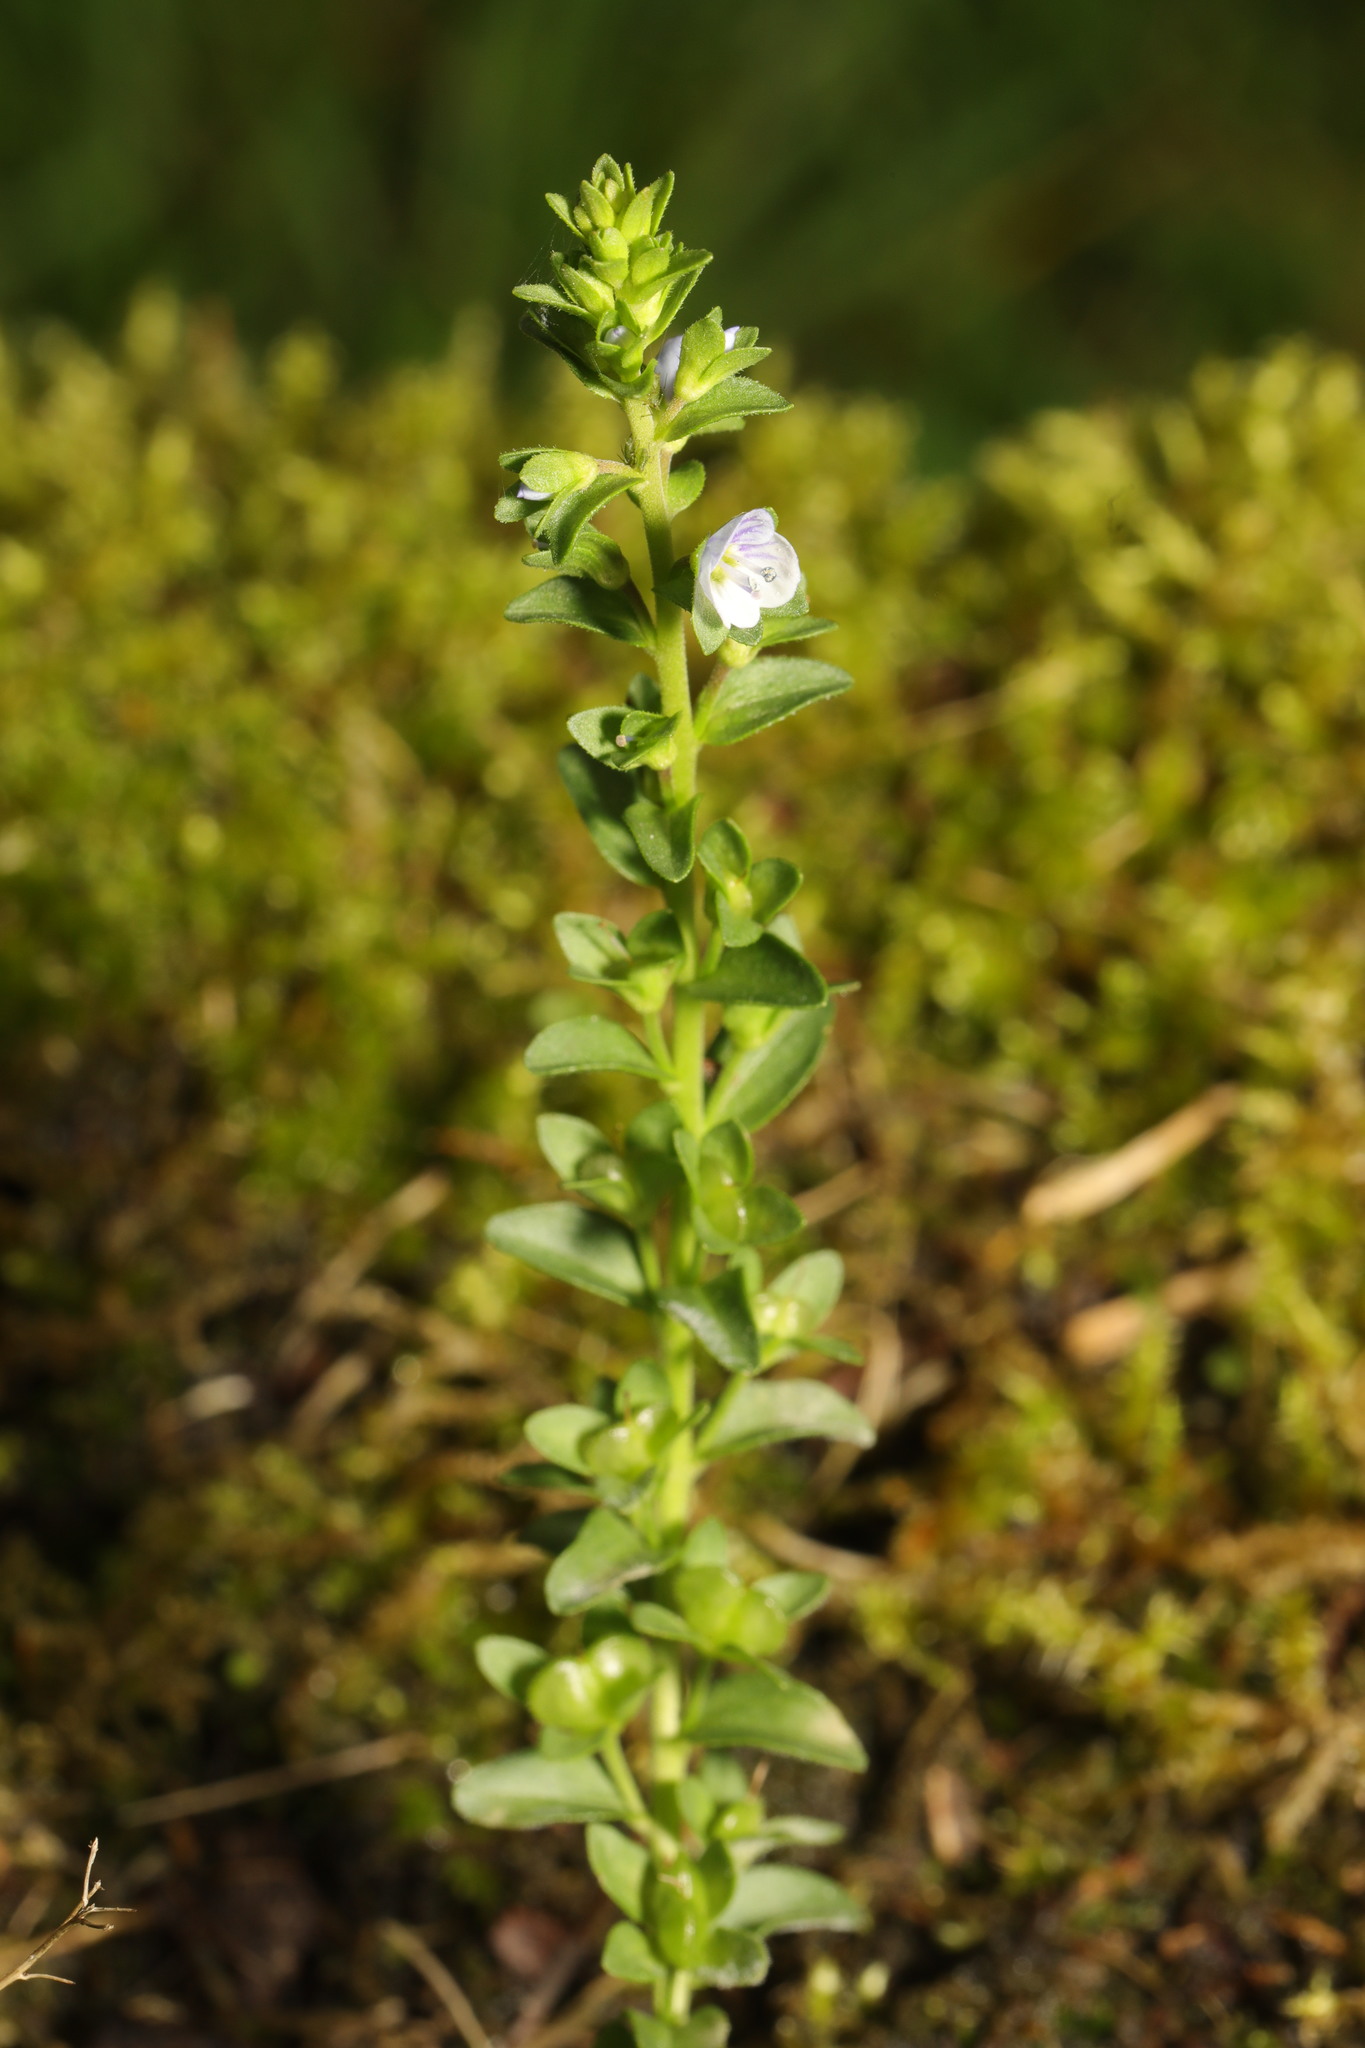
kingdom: Plantae
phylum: Tracheophyta
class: Magnoliopsida
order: Lamiales
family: Plantaginaceae
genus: Veronica
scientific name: Veronica serpyllifolia
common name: Thyme-leaved speedwell
